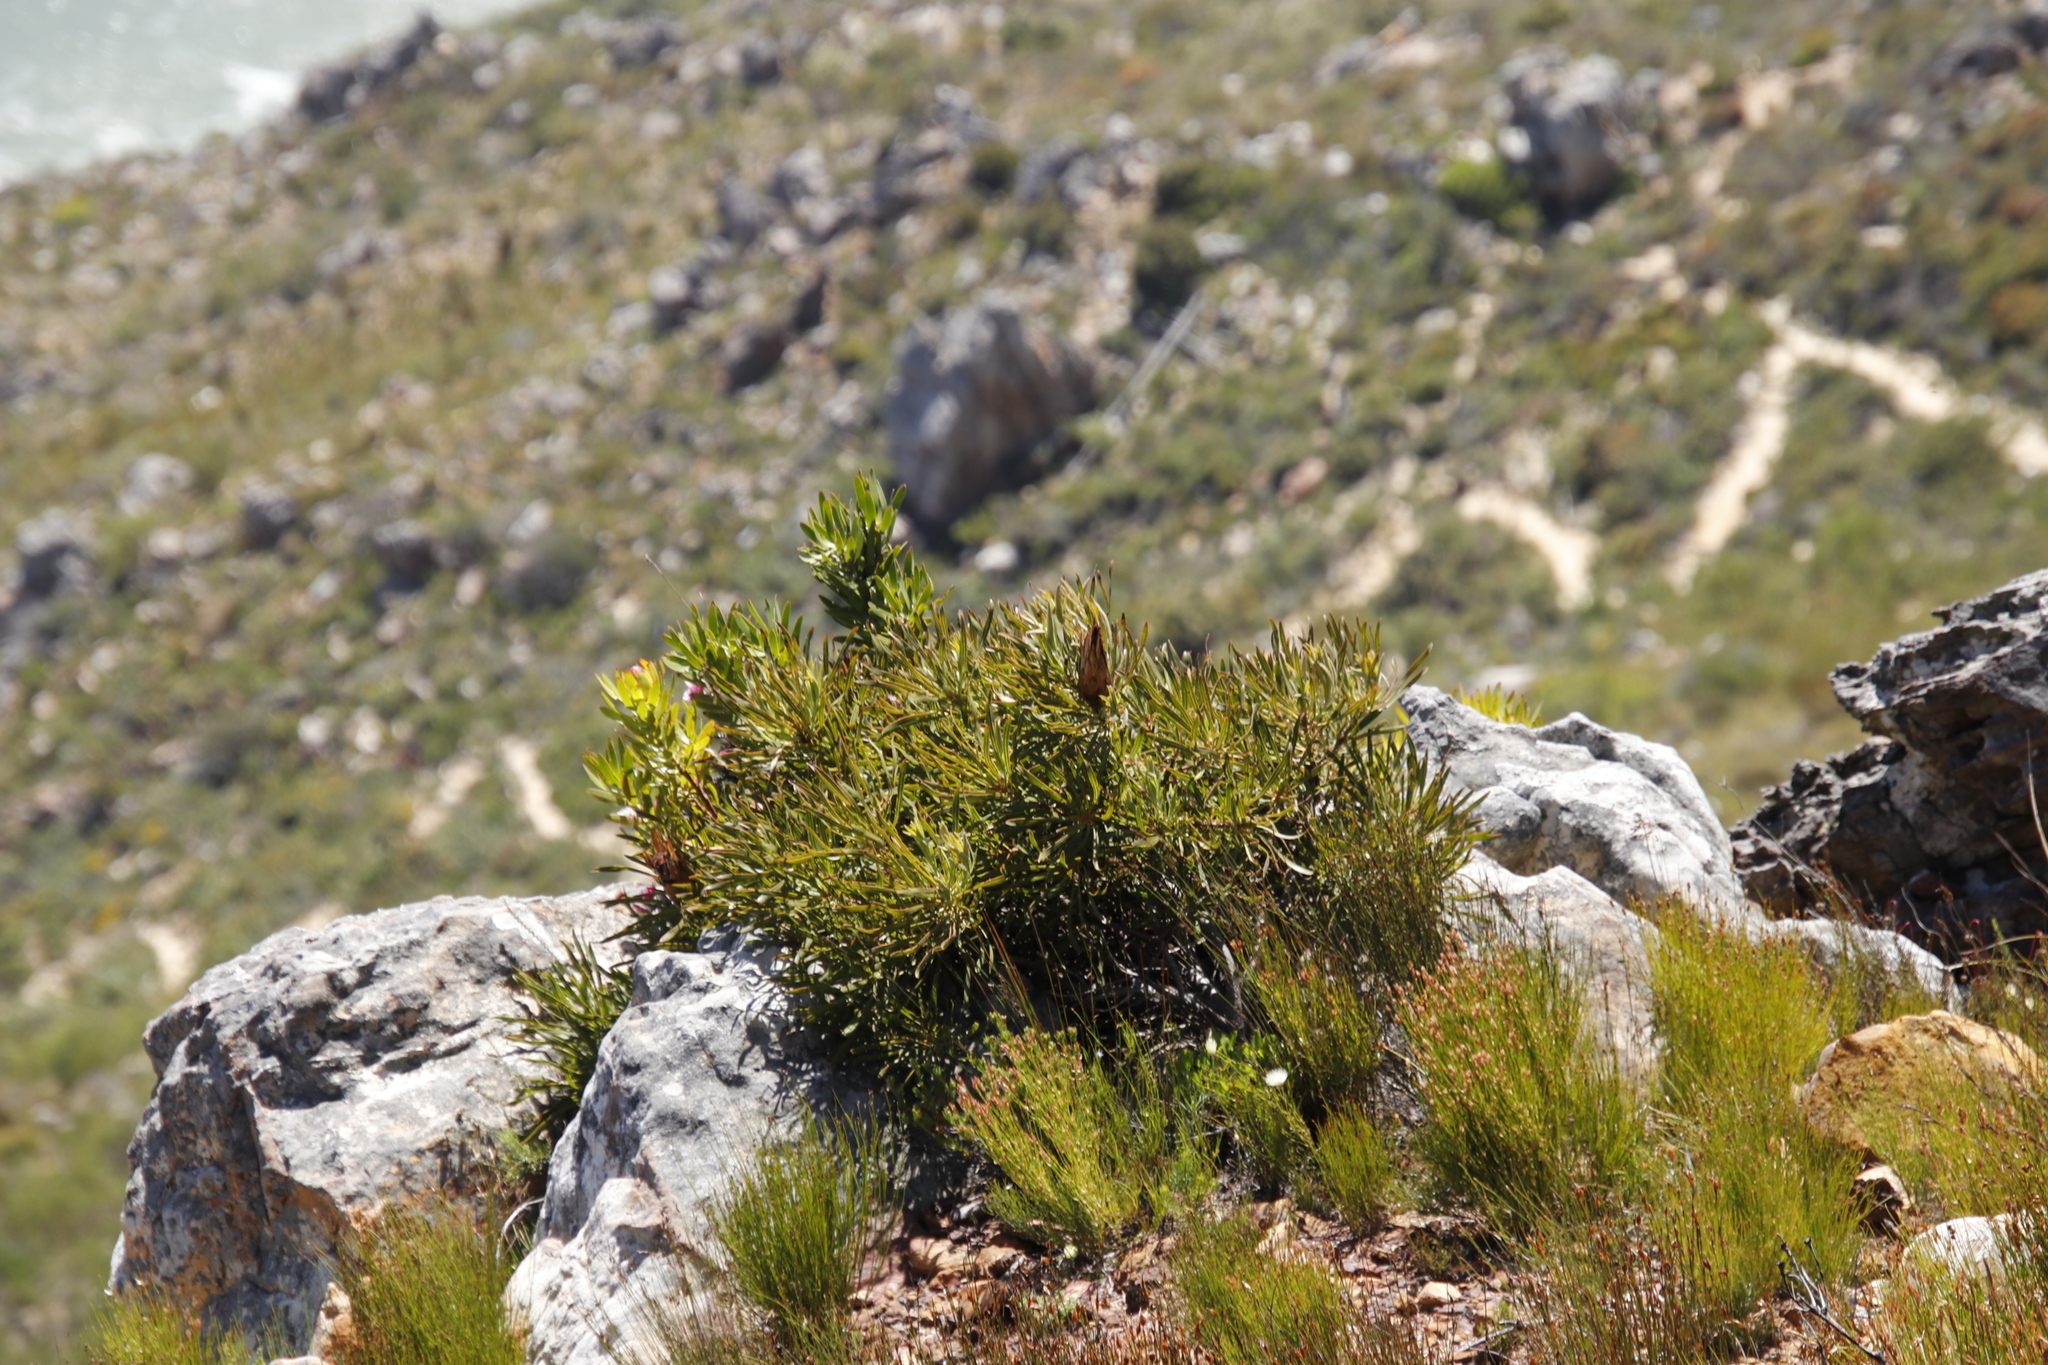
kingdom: Plantae
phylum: Tracheophyta
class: Magnoliopsida
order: Proteales
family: Proteaceae
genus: Protea
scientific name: Protea longifolia
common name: Long-leaf sugarbush
